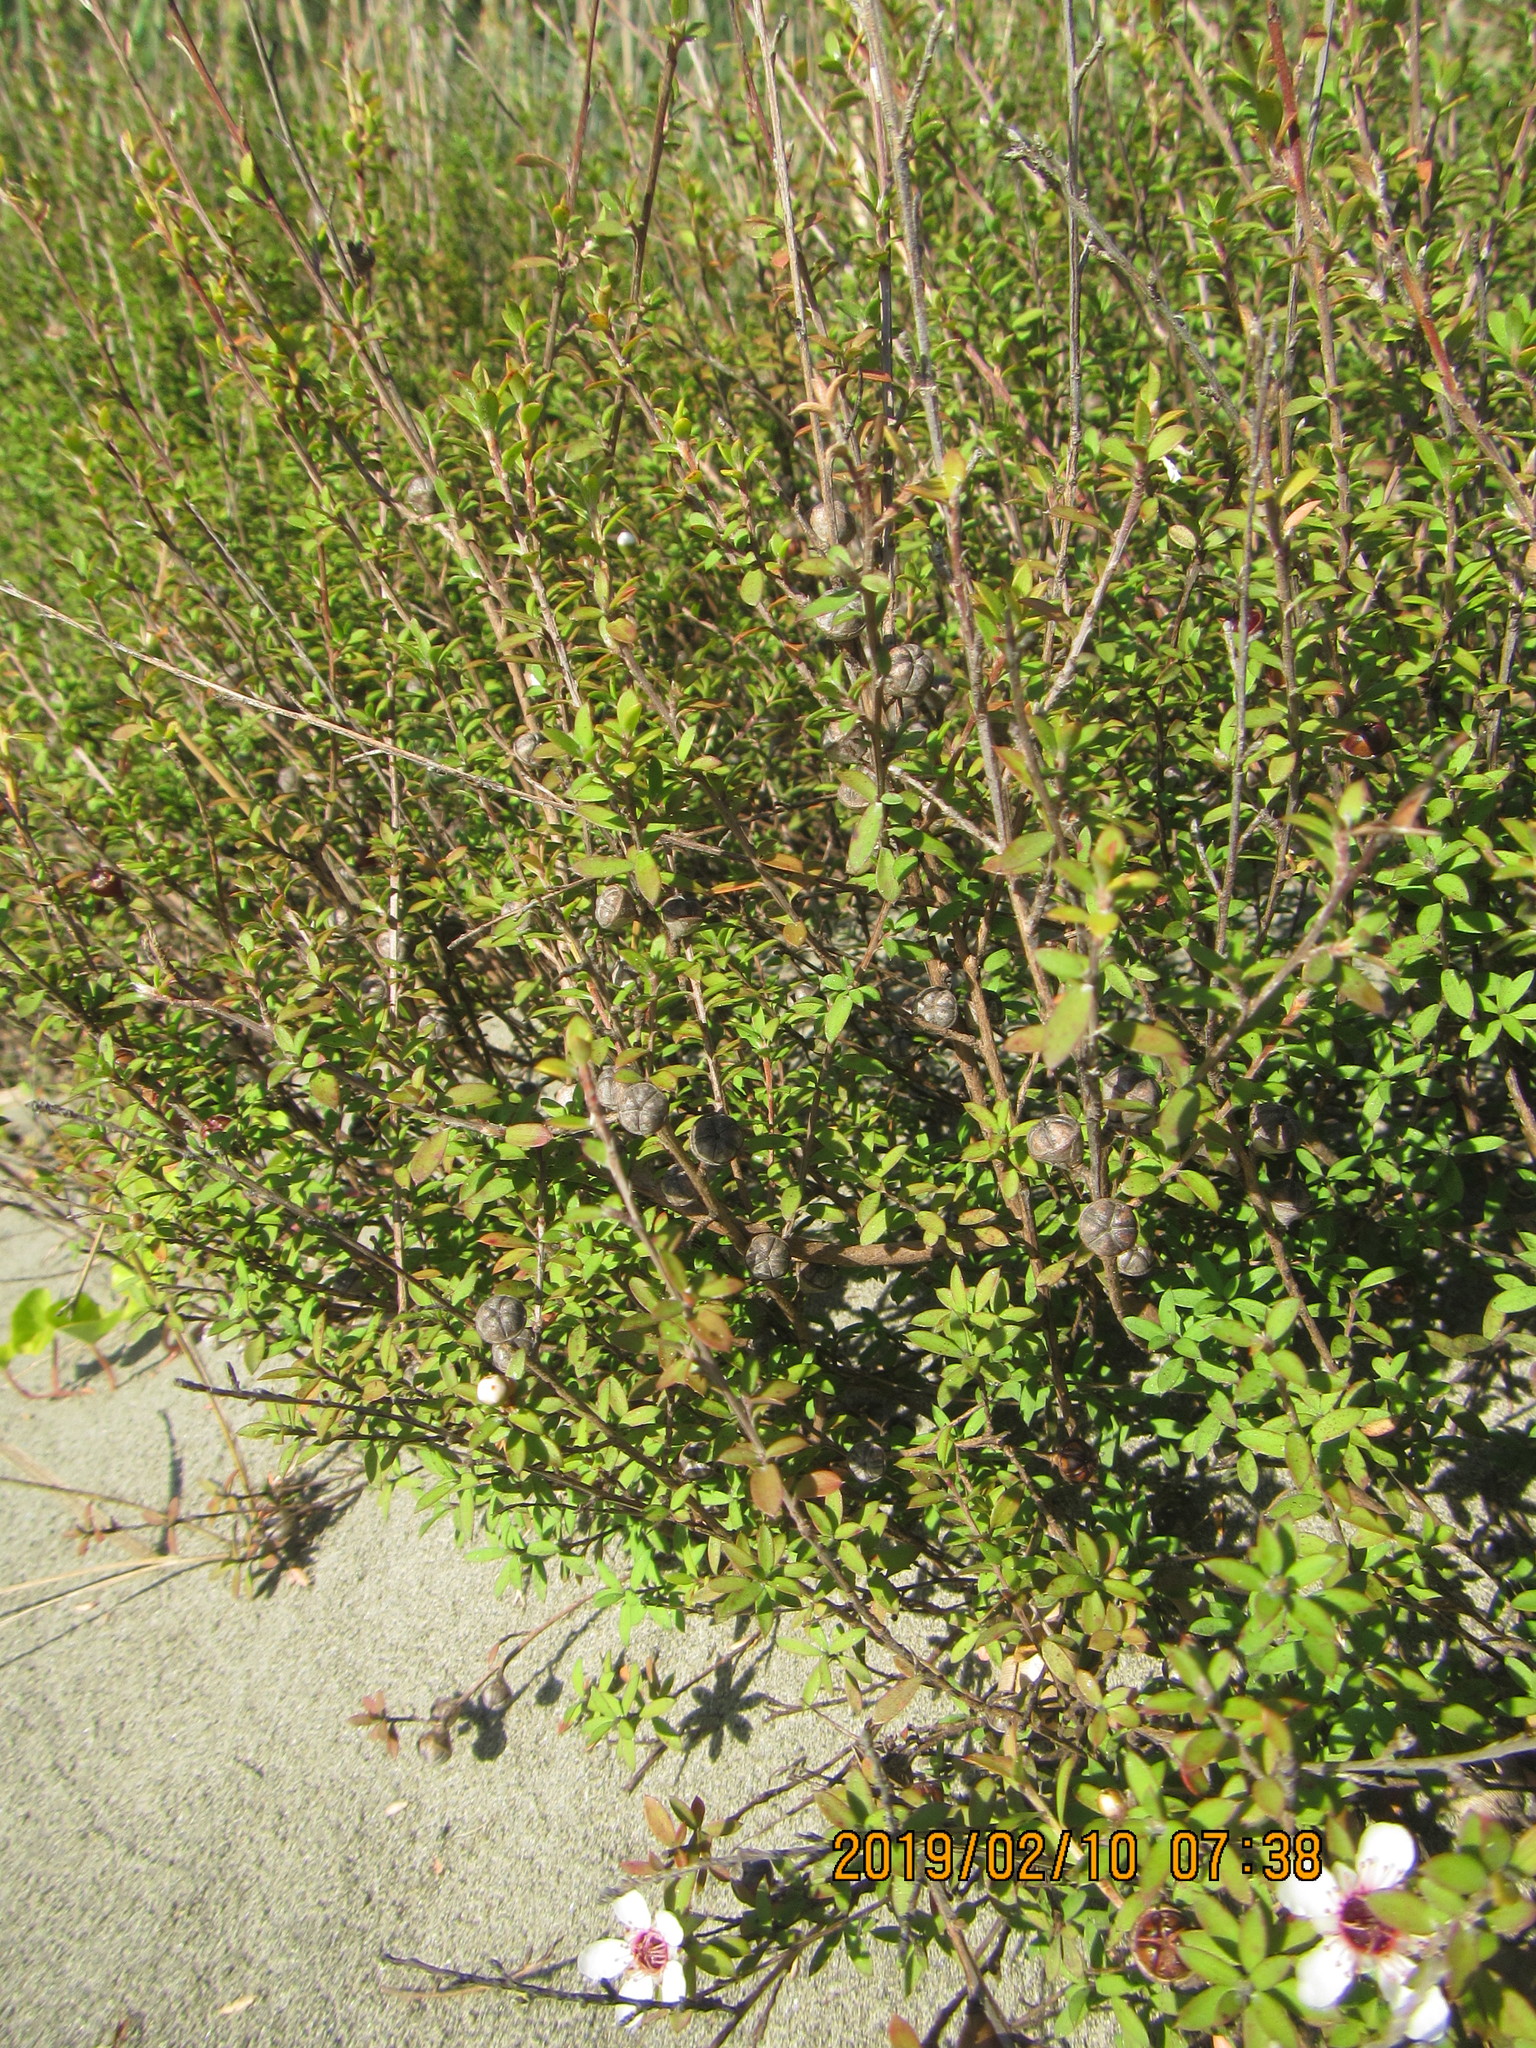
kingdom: Plantae
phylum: Tracheophyta
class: Magnoliopsida
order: Myrtales
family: Myrtaceae
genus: Leptospermum
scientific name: Leptospermum scoparium
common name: Broom tea-tree
